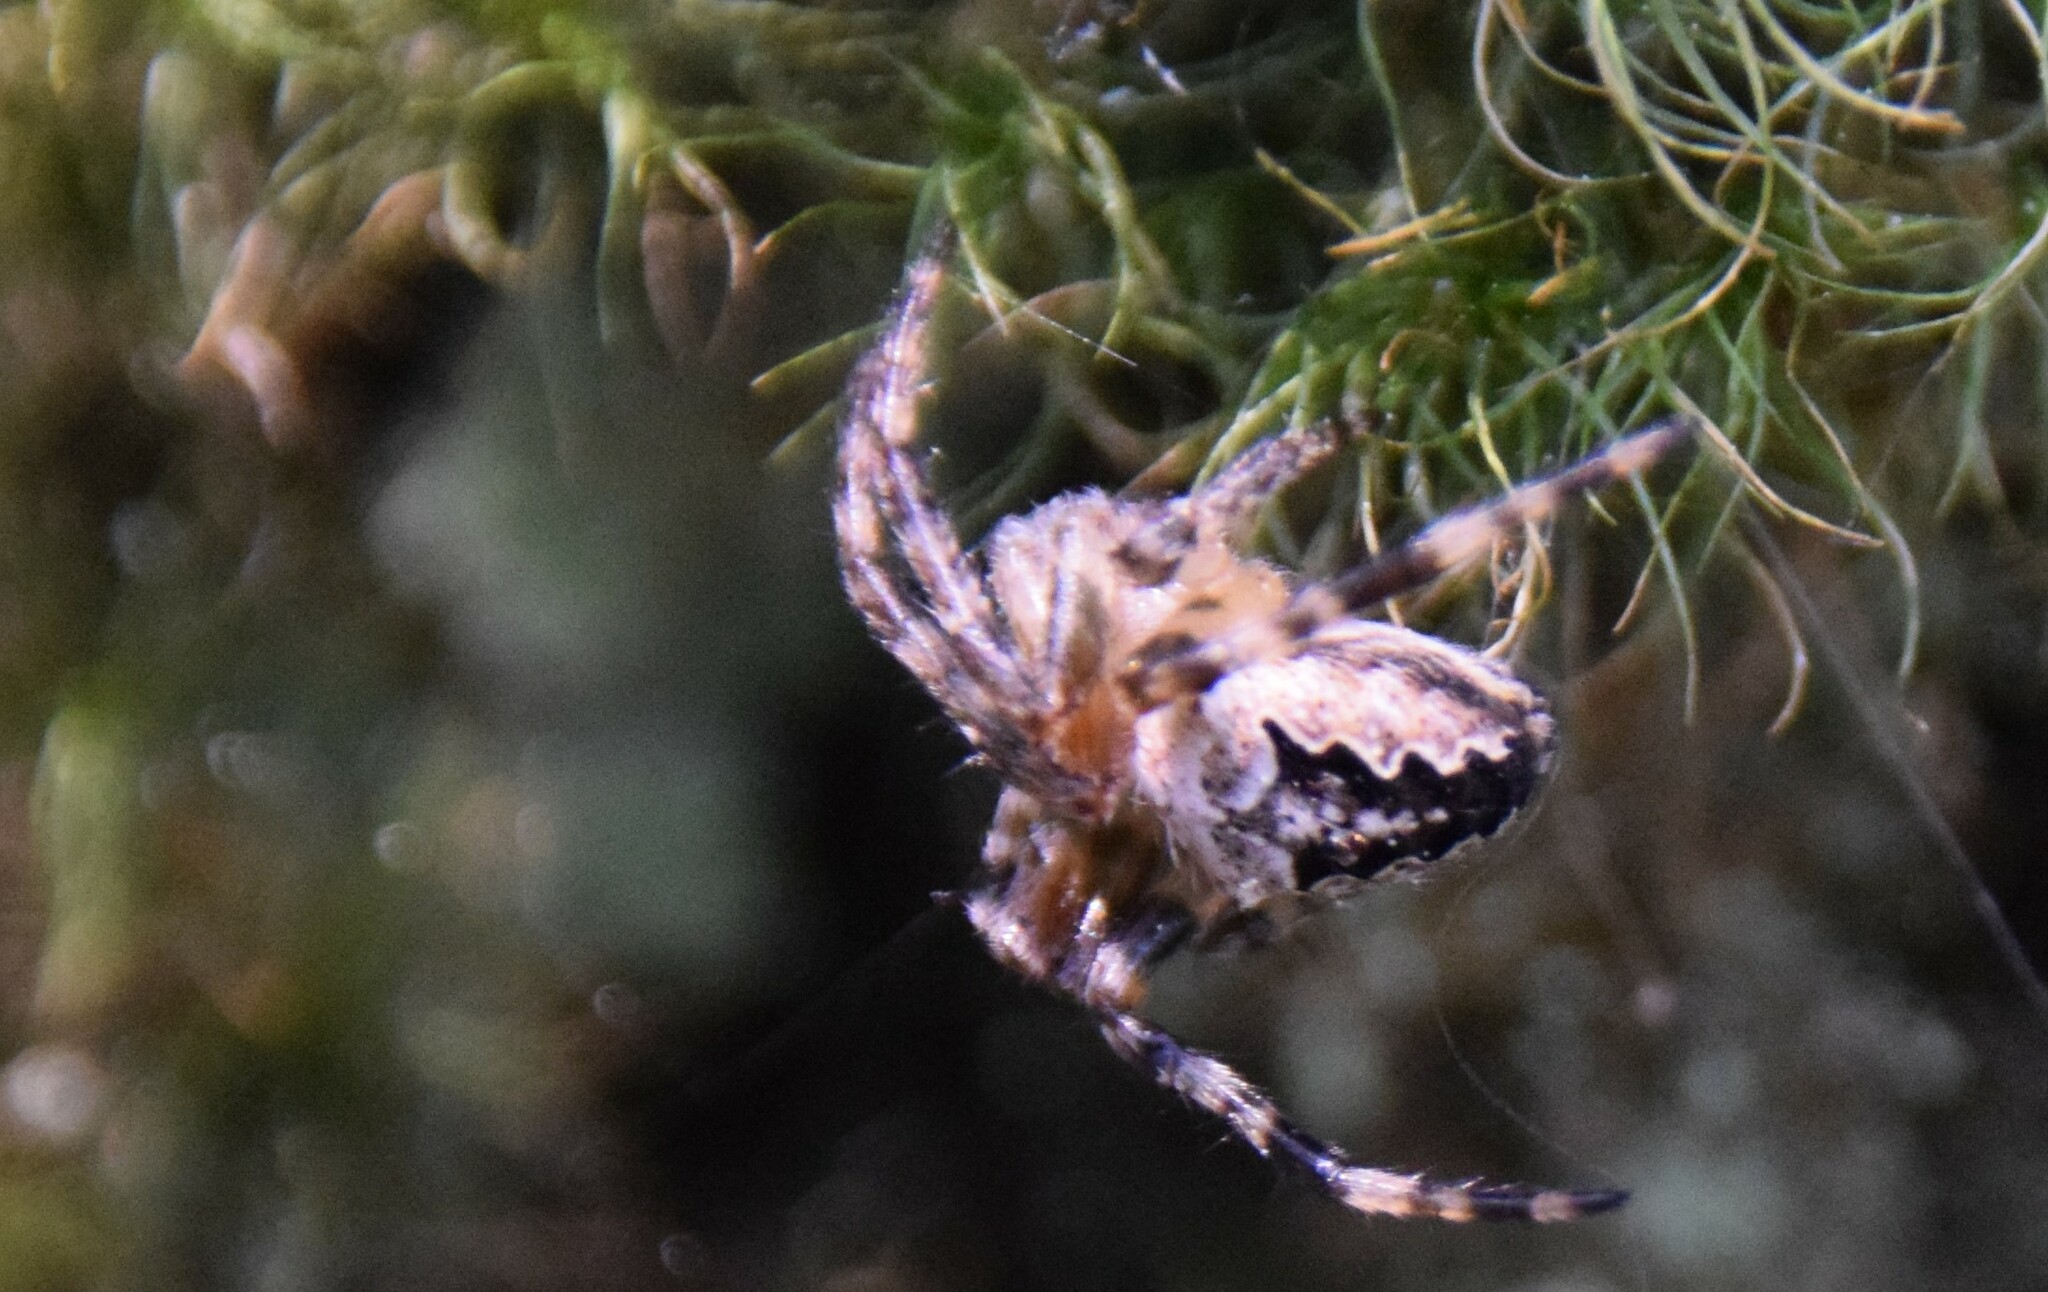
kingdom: Animalia
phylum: Arthropoda
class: Arachnida
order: Araneae
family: Araneidae
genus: Araneus
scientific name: Araneus nordmanni
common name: Nordmann's orbweaver
